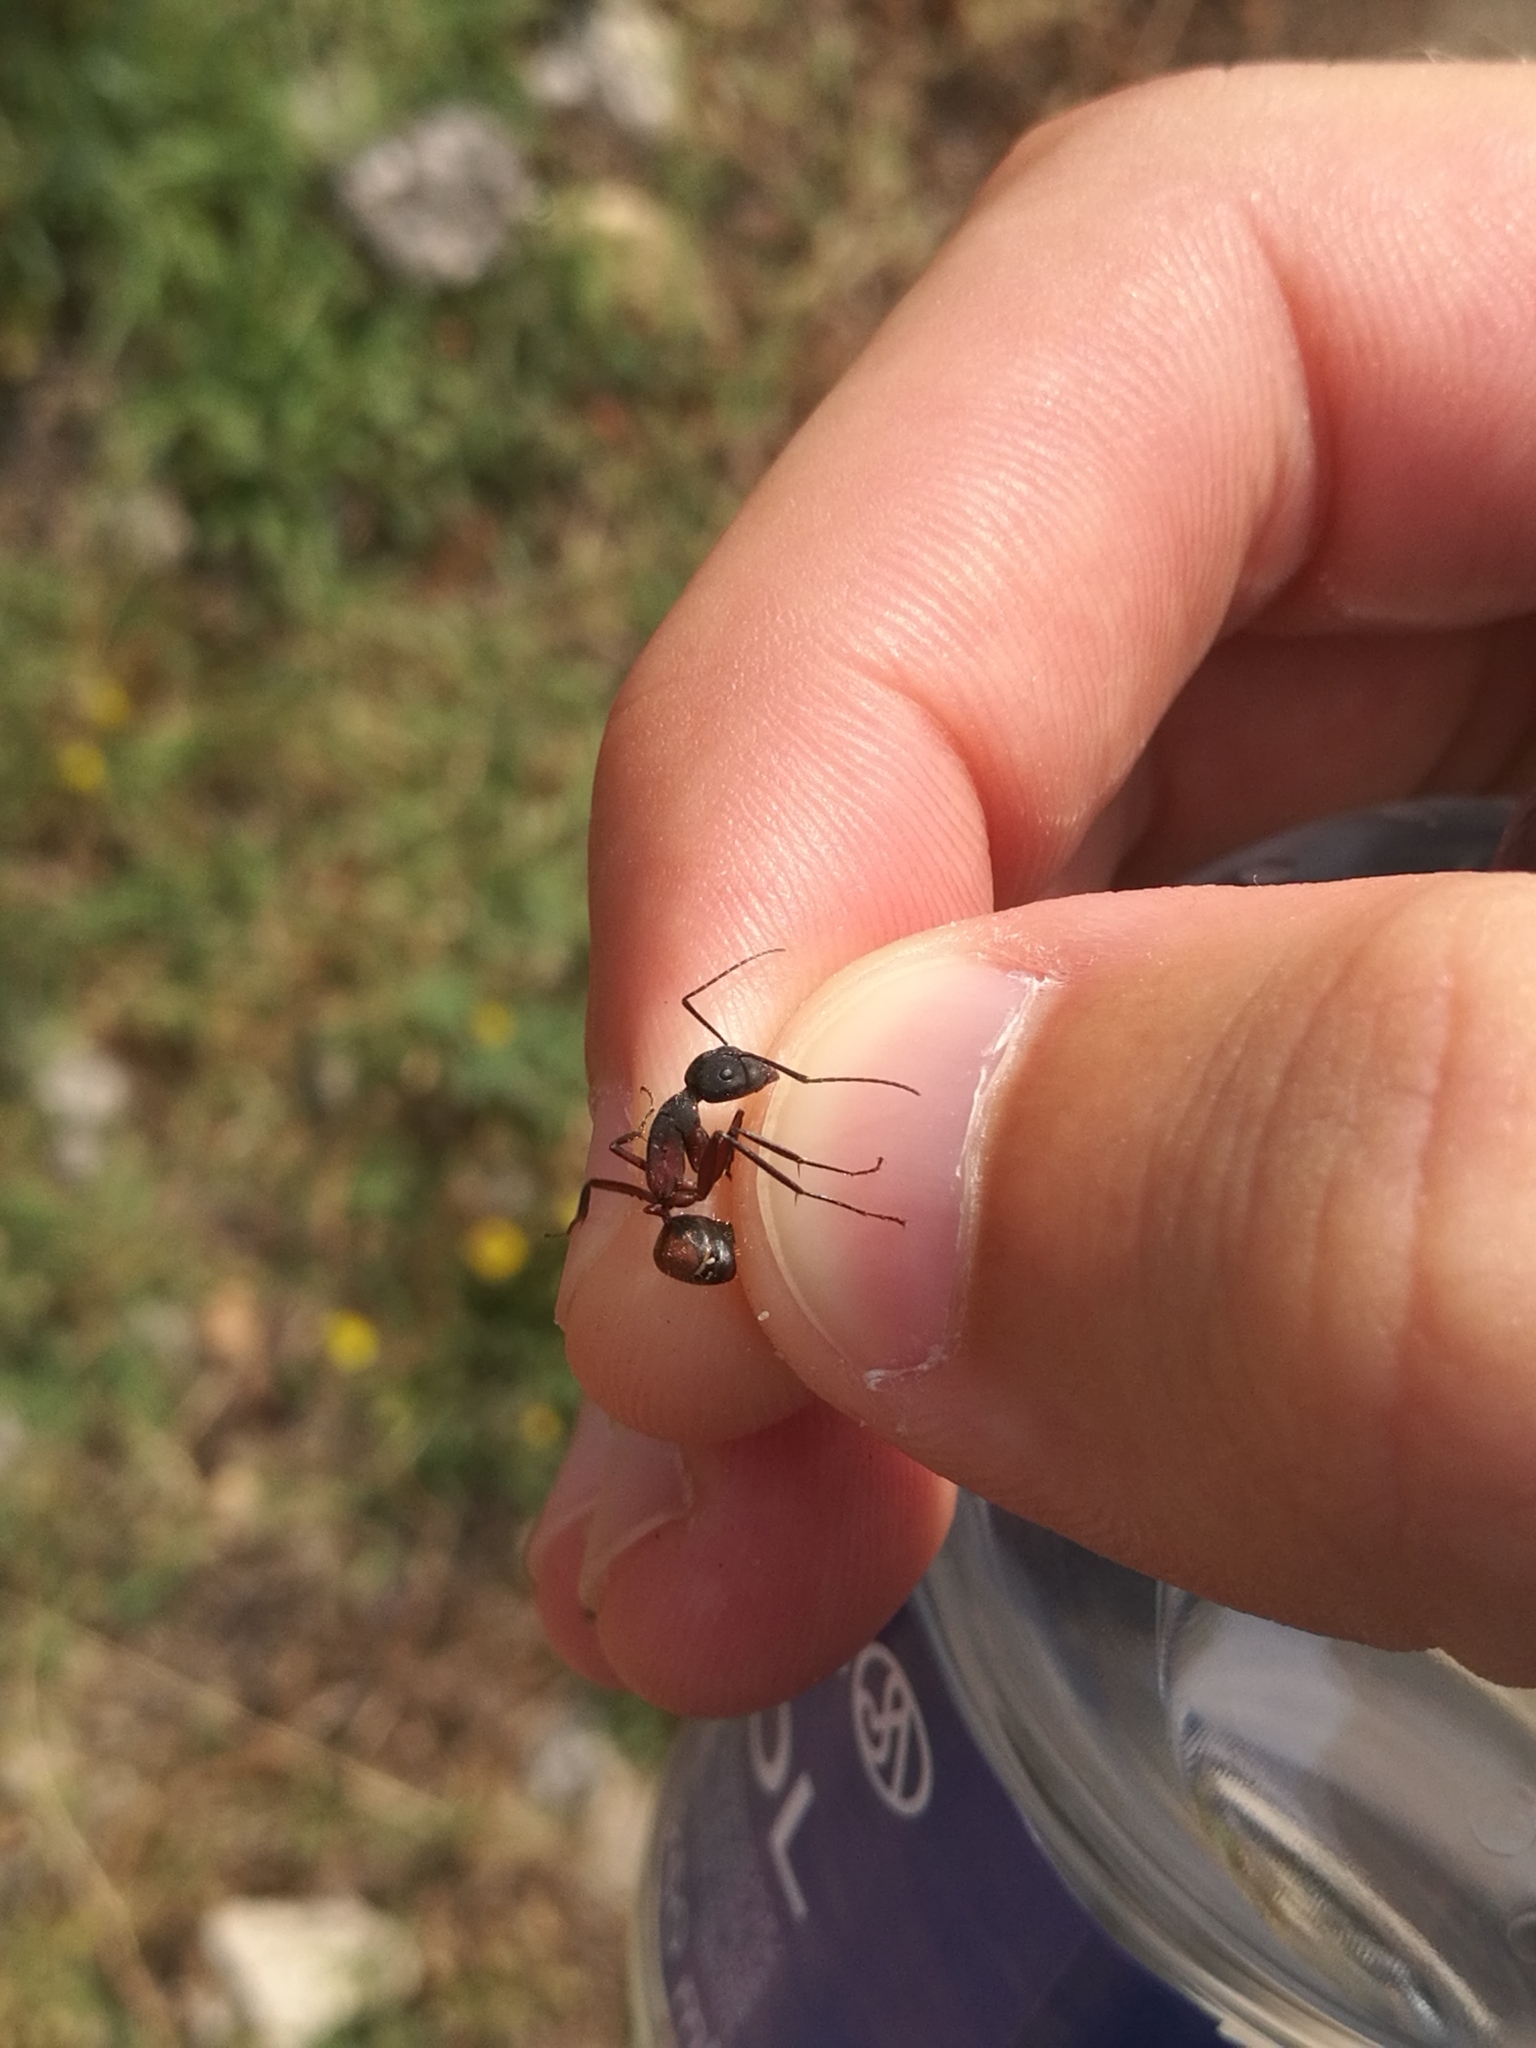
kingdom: Animalia
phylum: Arthropoda
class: Insecta
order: Hymenoptera
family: Formicidae
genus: Camponotus
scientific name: Camponotus cruentatus
